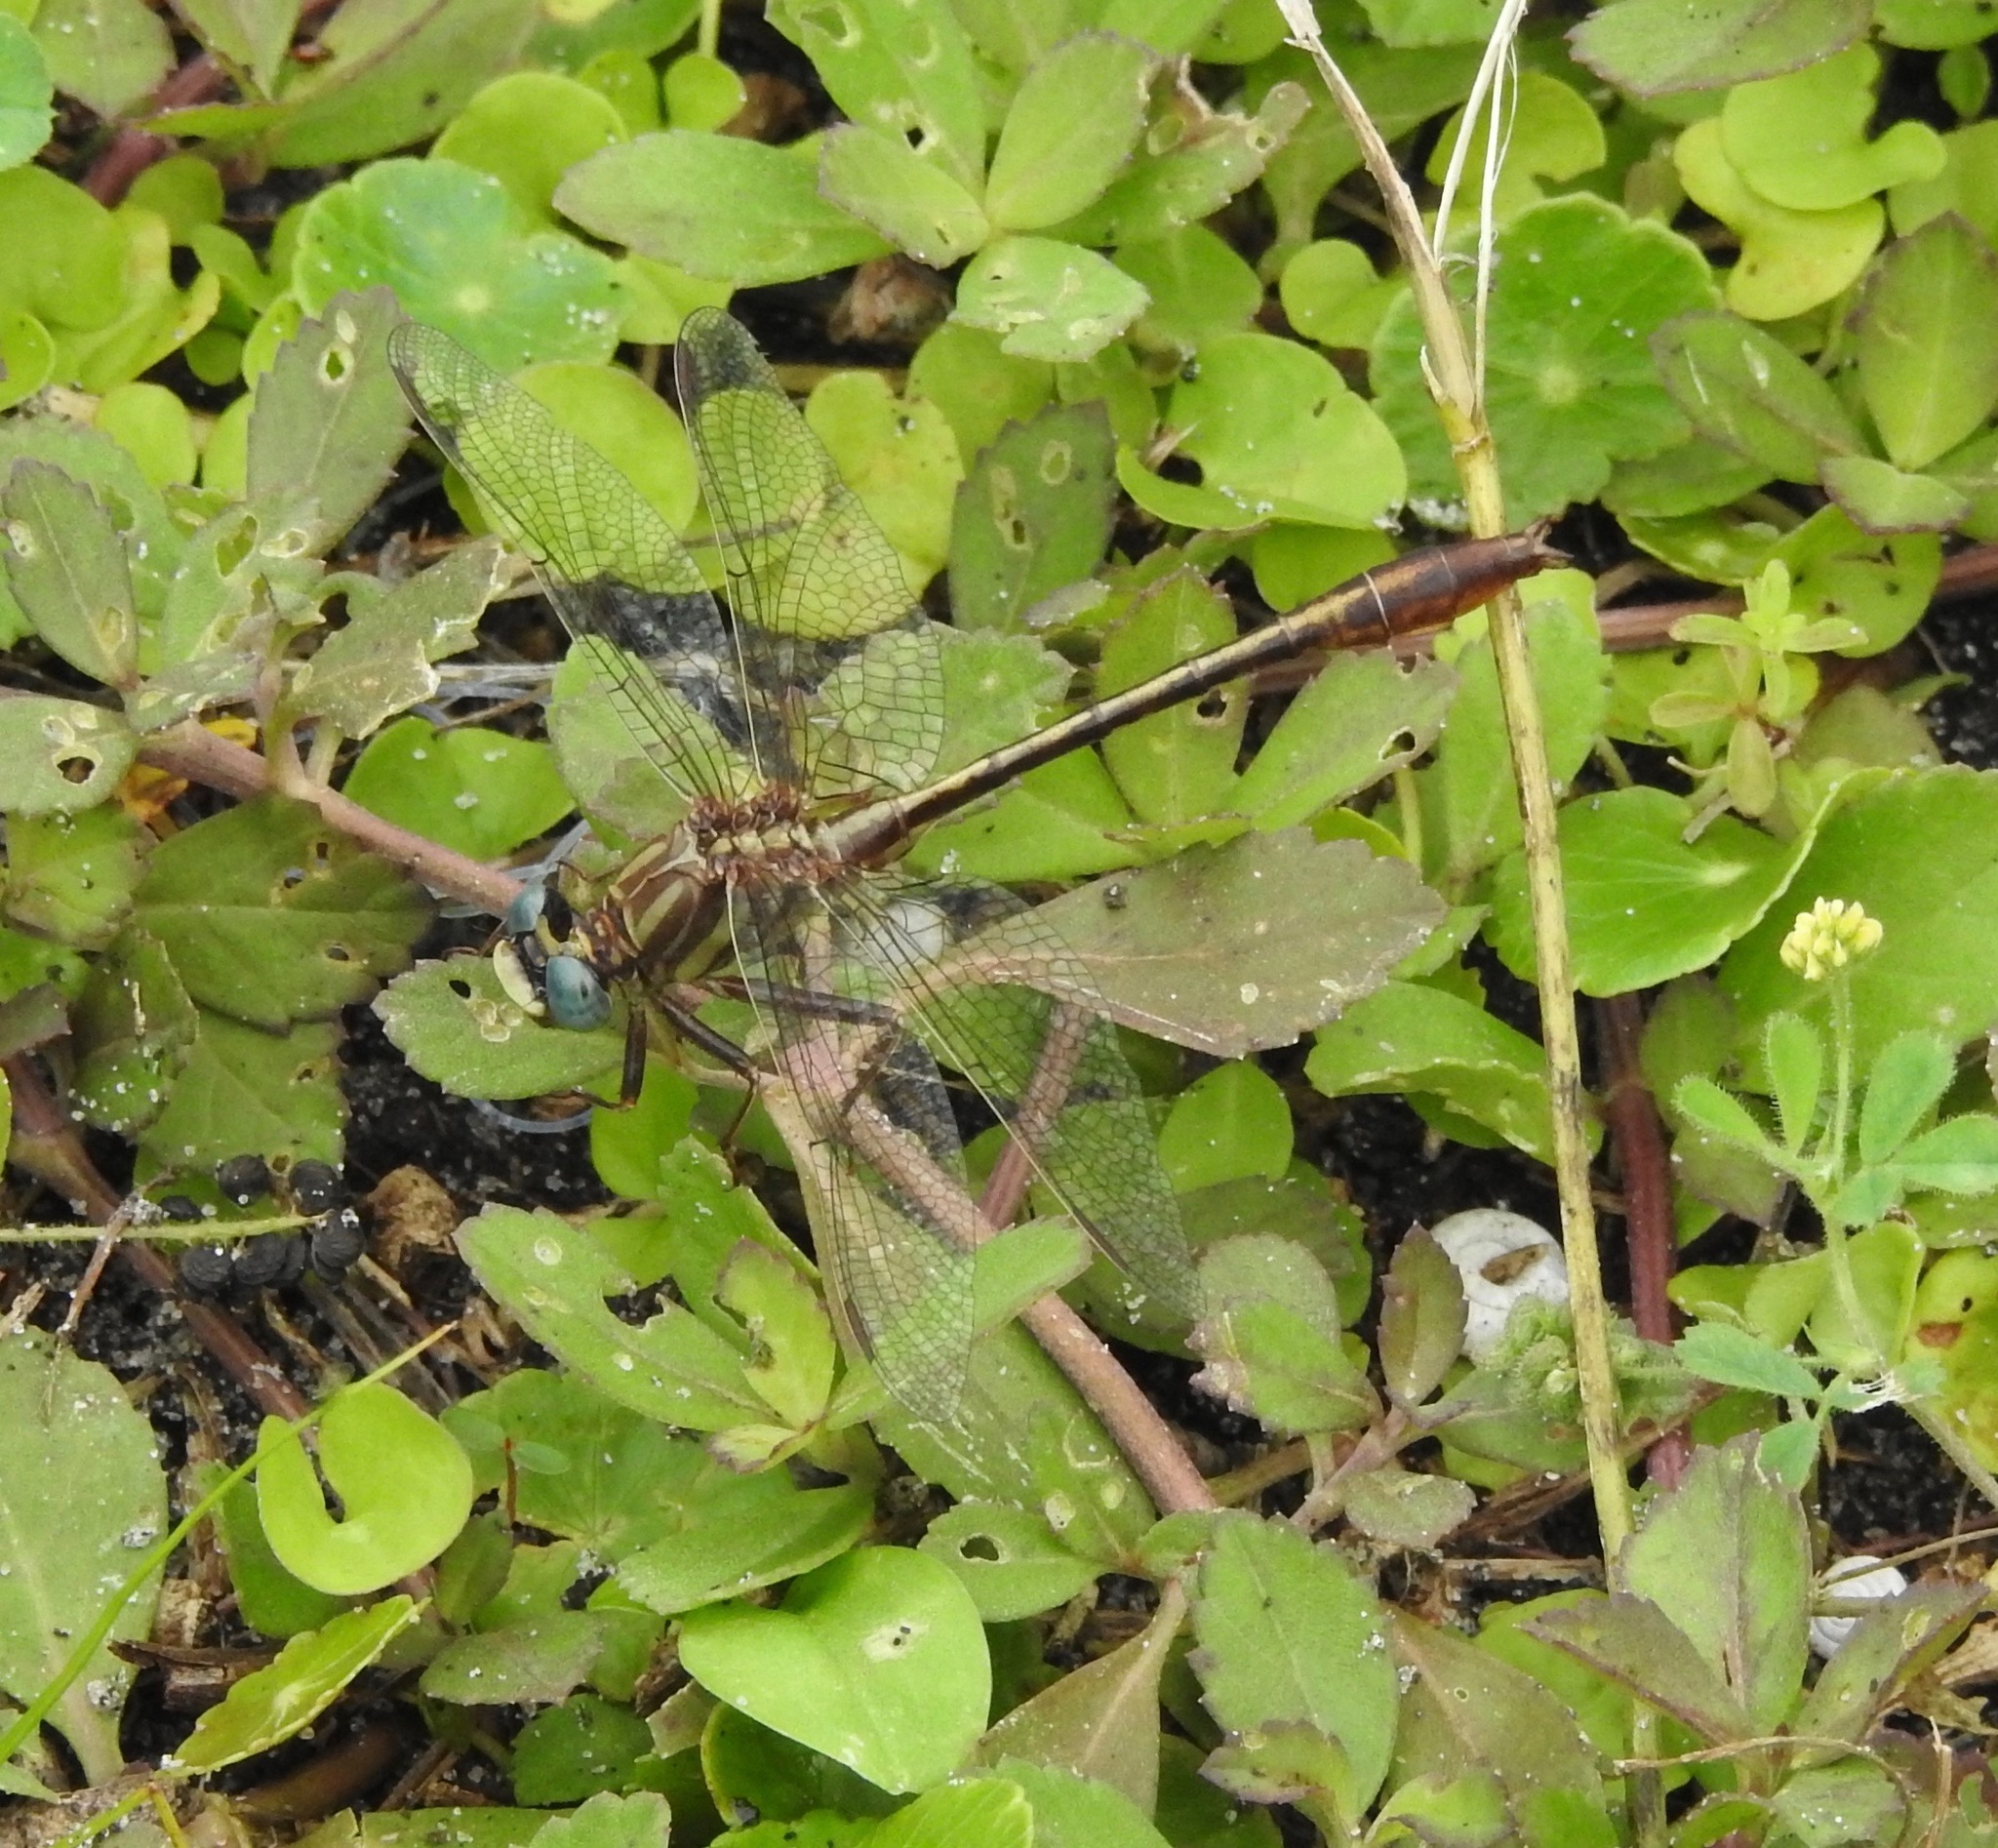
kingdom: Animalia
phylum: Arthropoda
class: Insecta
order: Odonata
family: Gomphidae
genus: Phanogomphus
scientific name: Phanogomphus minutus
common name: Cypress clubtail
